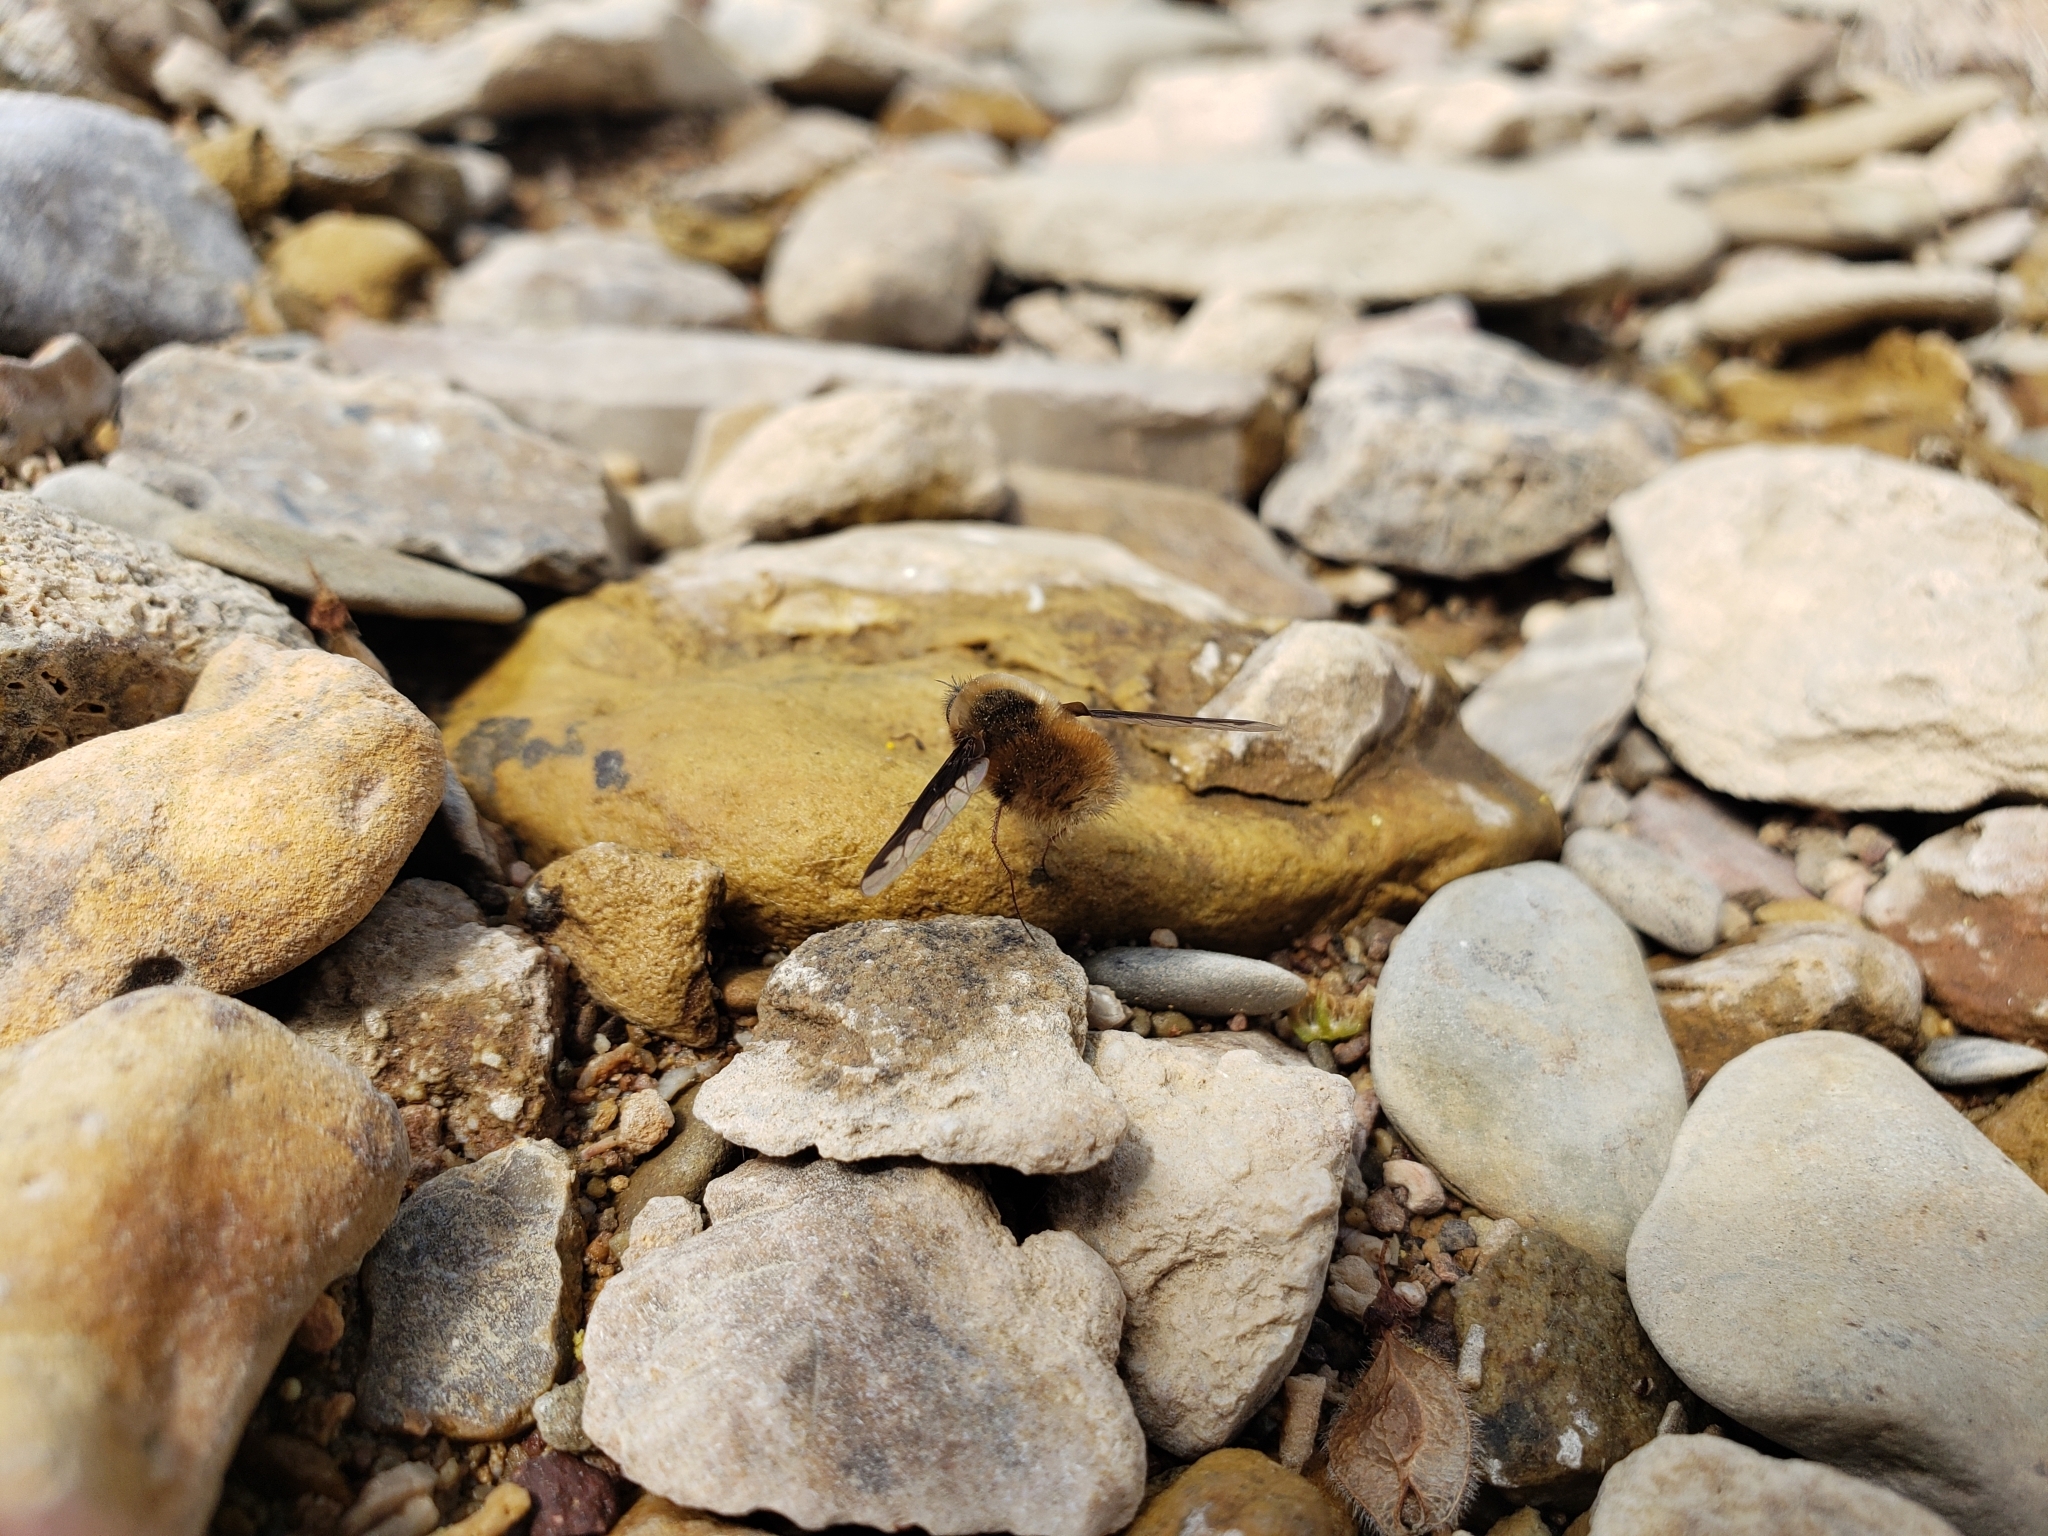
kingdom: Animalia
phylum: Arthropoda
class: Insecta
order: Diptera
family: Bombyliidae
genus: Bombylius
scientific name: Bombylius major
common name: Bee fly
